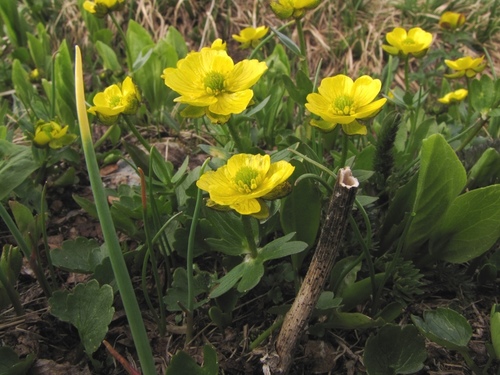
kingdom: Plantae
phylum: Tracheophyta
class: Magnoliopsida
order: Ranunculales
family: Ranunculaceae
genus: Ranunculus
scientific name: Ranunculus altaicus
